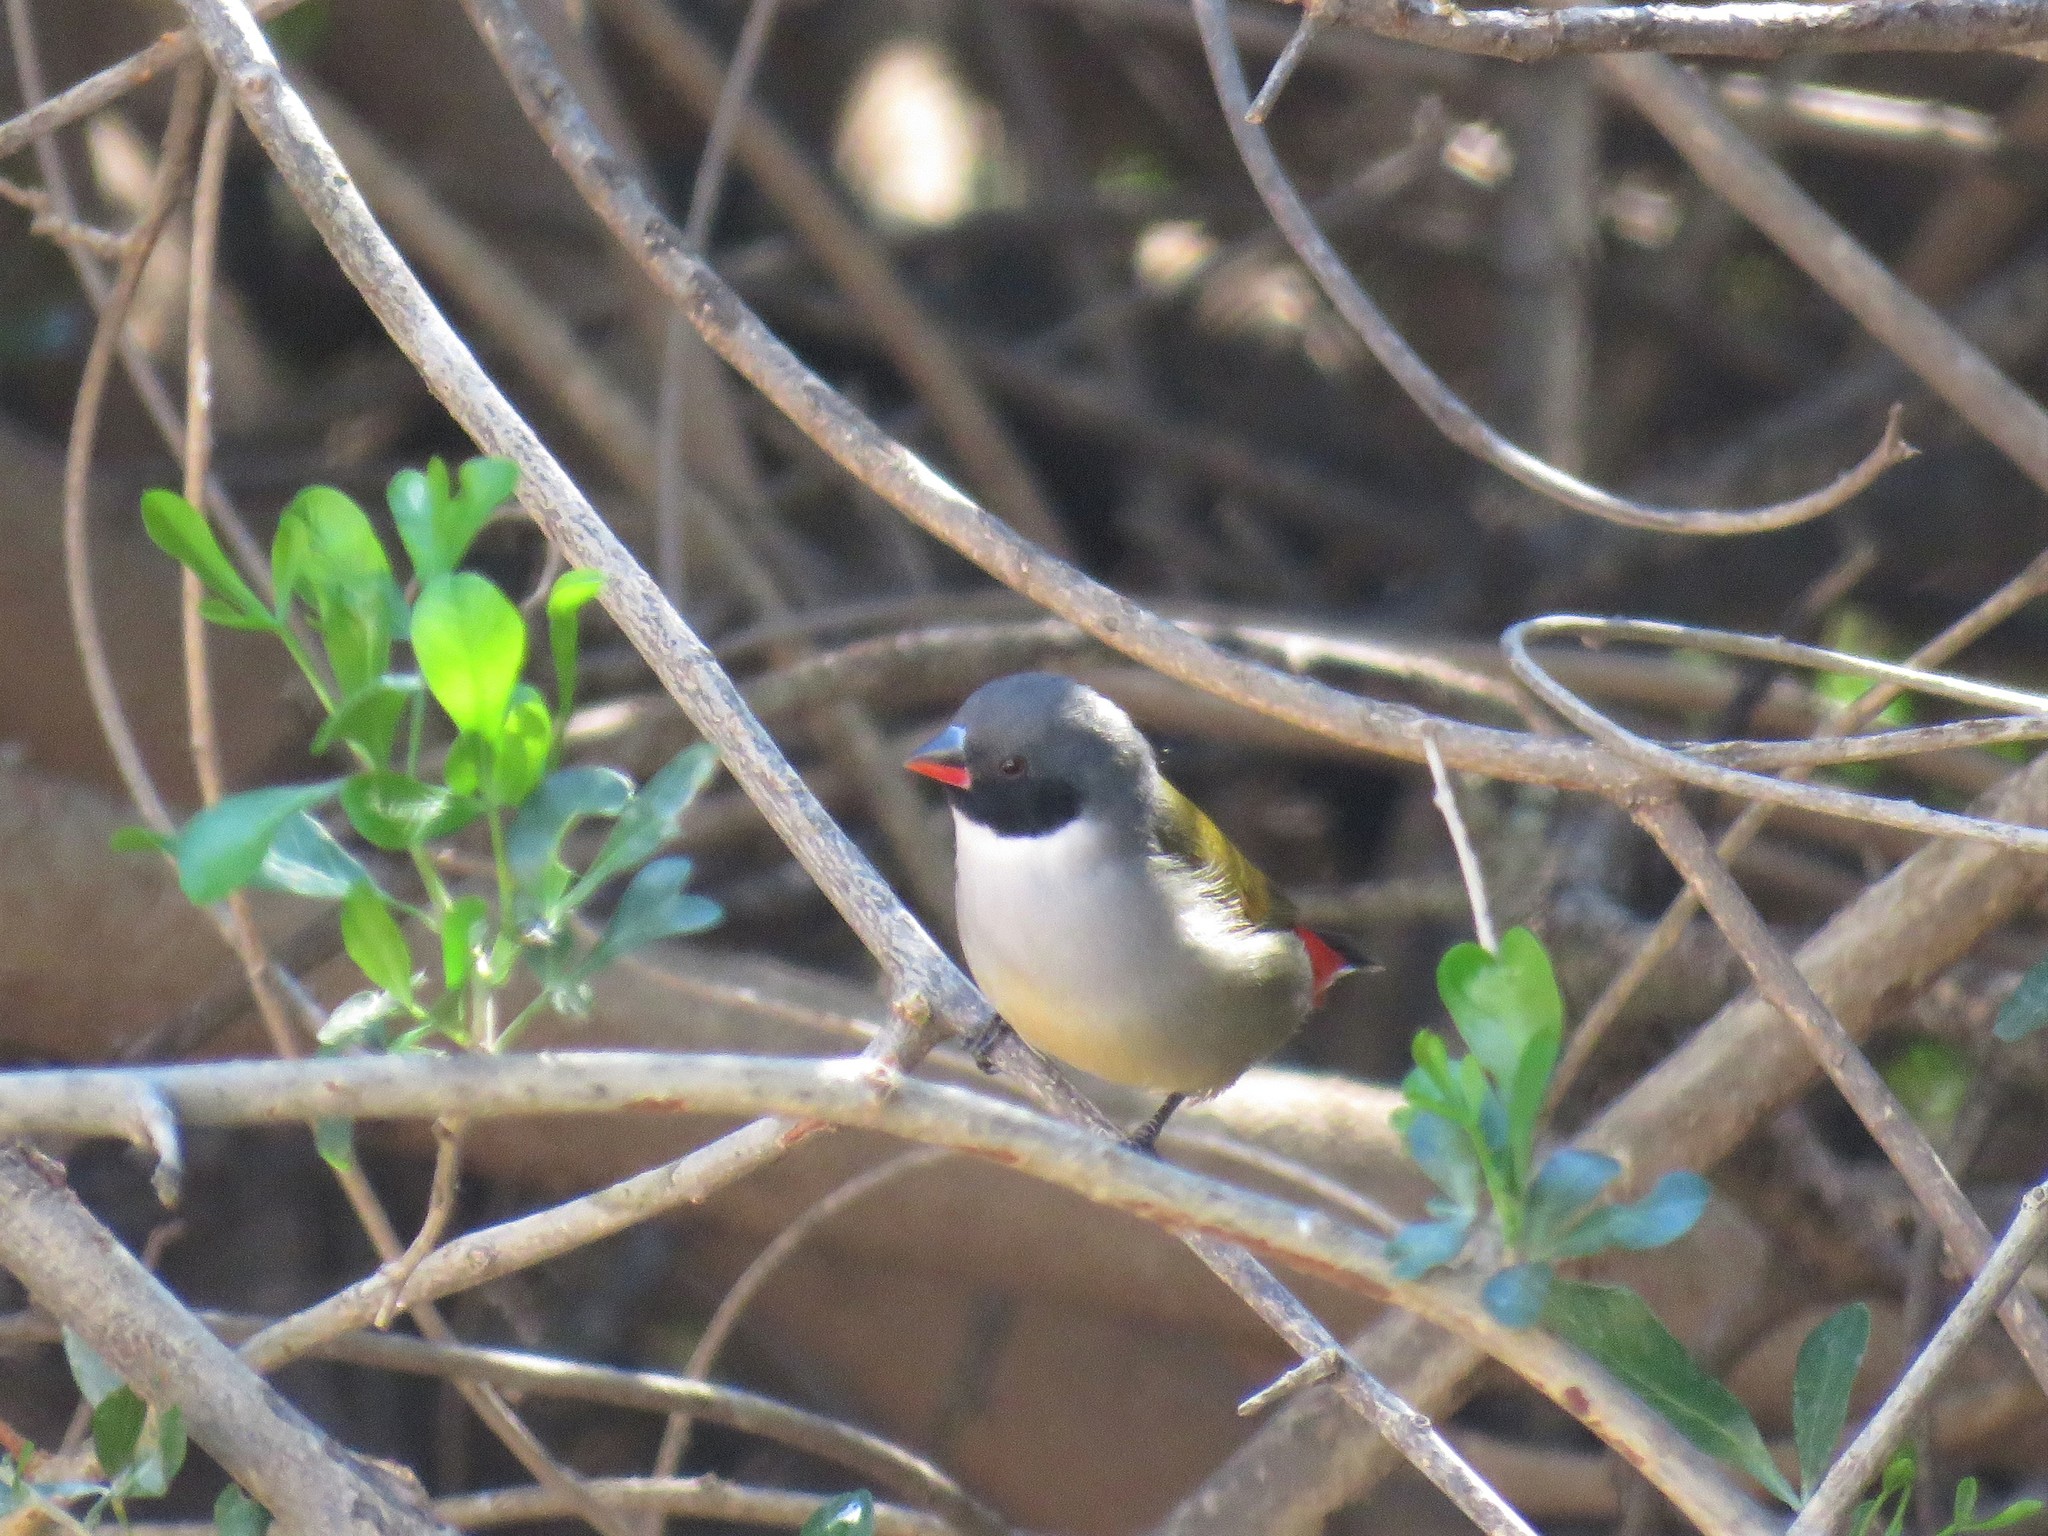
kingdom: Animalia
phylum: Chordata
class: Aves
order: Passeriformes
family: Estrildidae
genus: Coccopygia
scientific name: Coccopygia melanotis
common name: Swee waxbill
